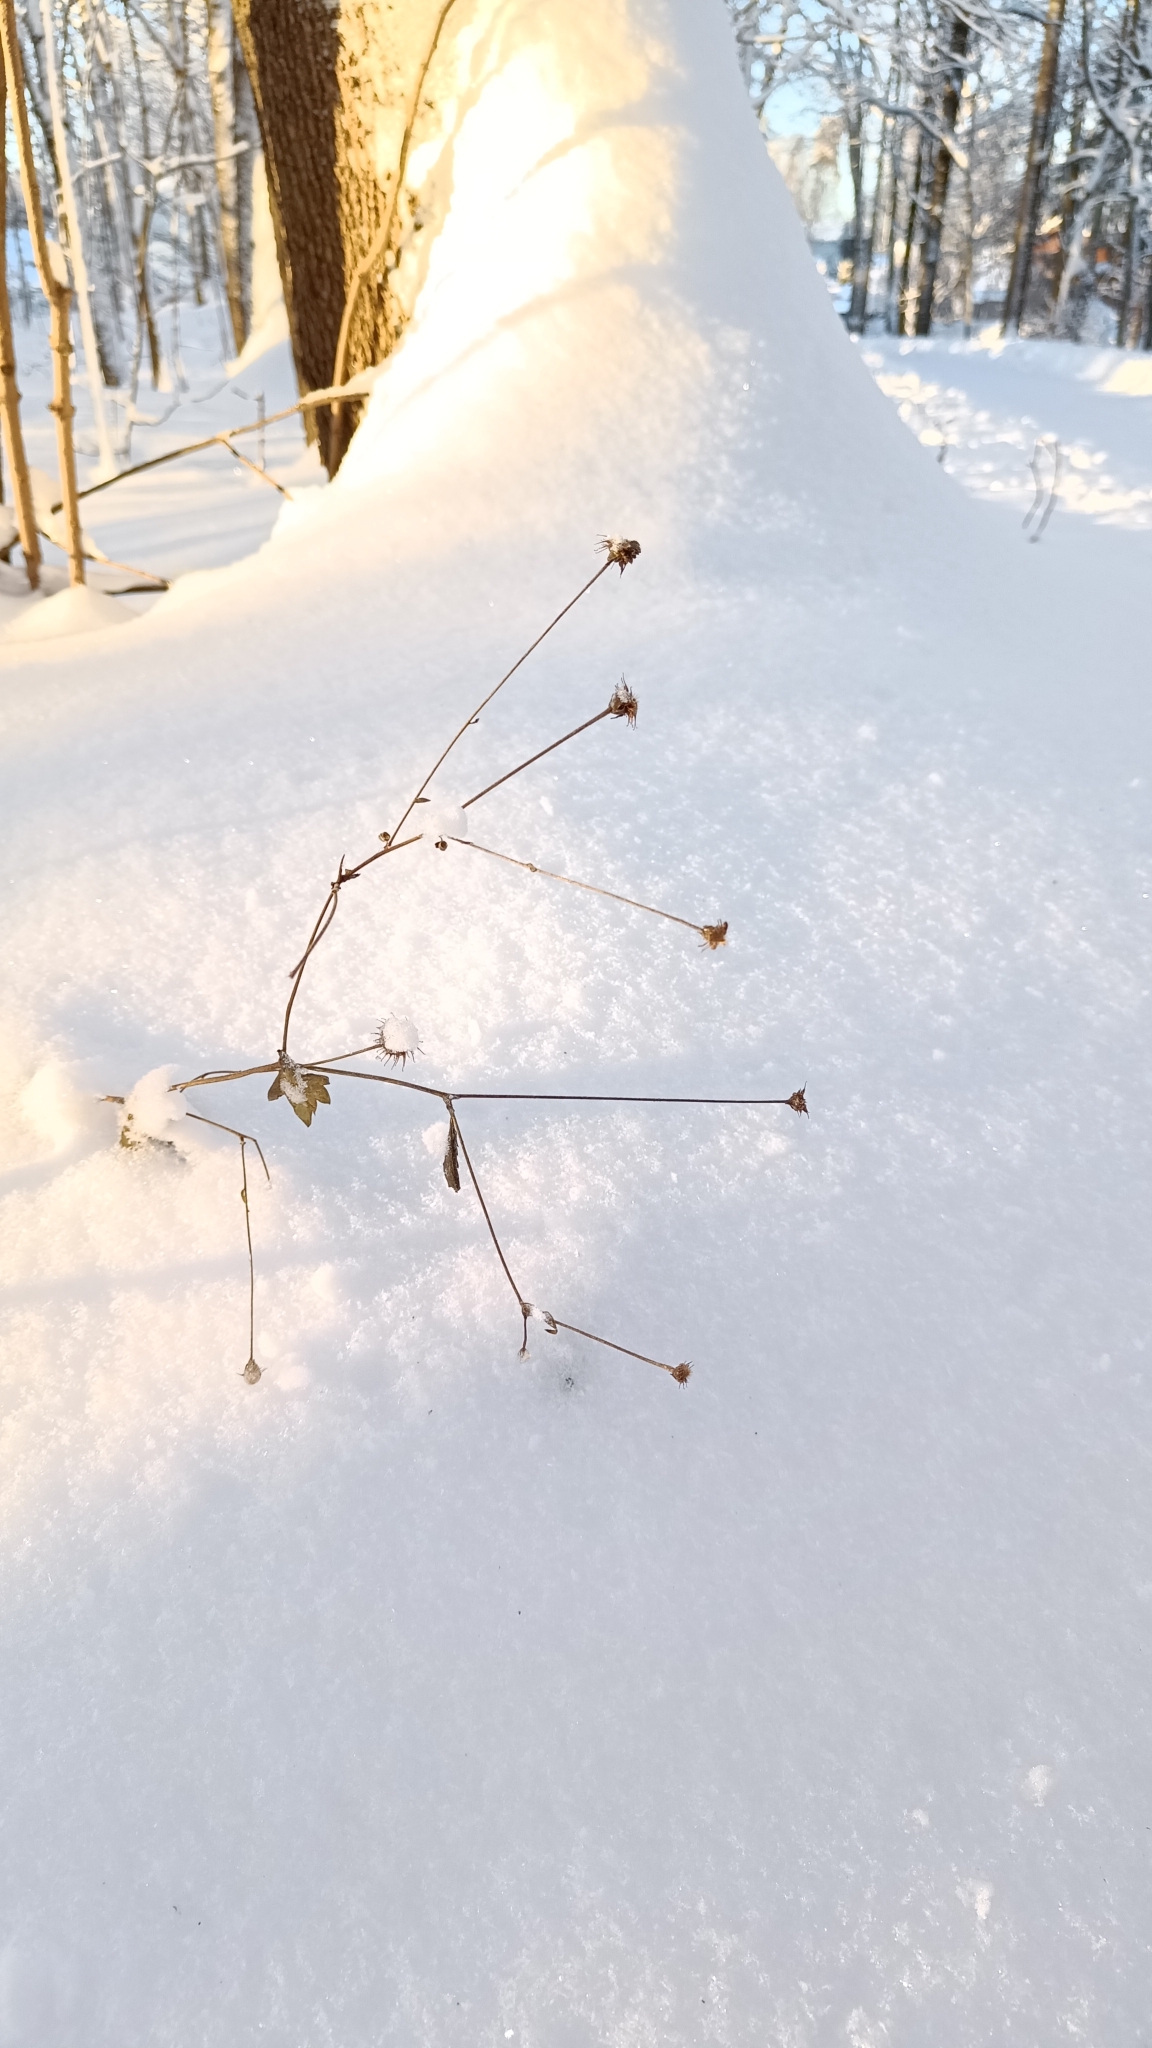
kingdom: Plantae
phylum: Tracheophyta
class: Magnoliopsida
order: Rosales
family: Rosaceae
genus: Geum
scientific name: Geum urbanum
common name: Wood avens
